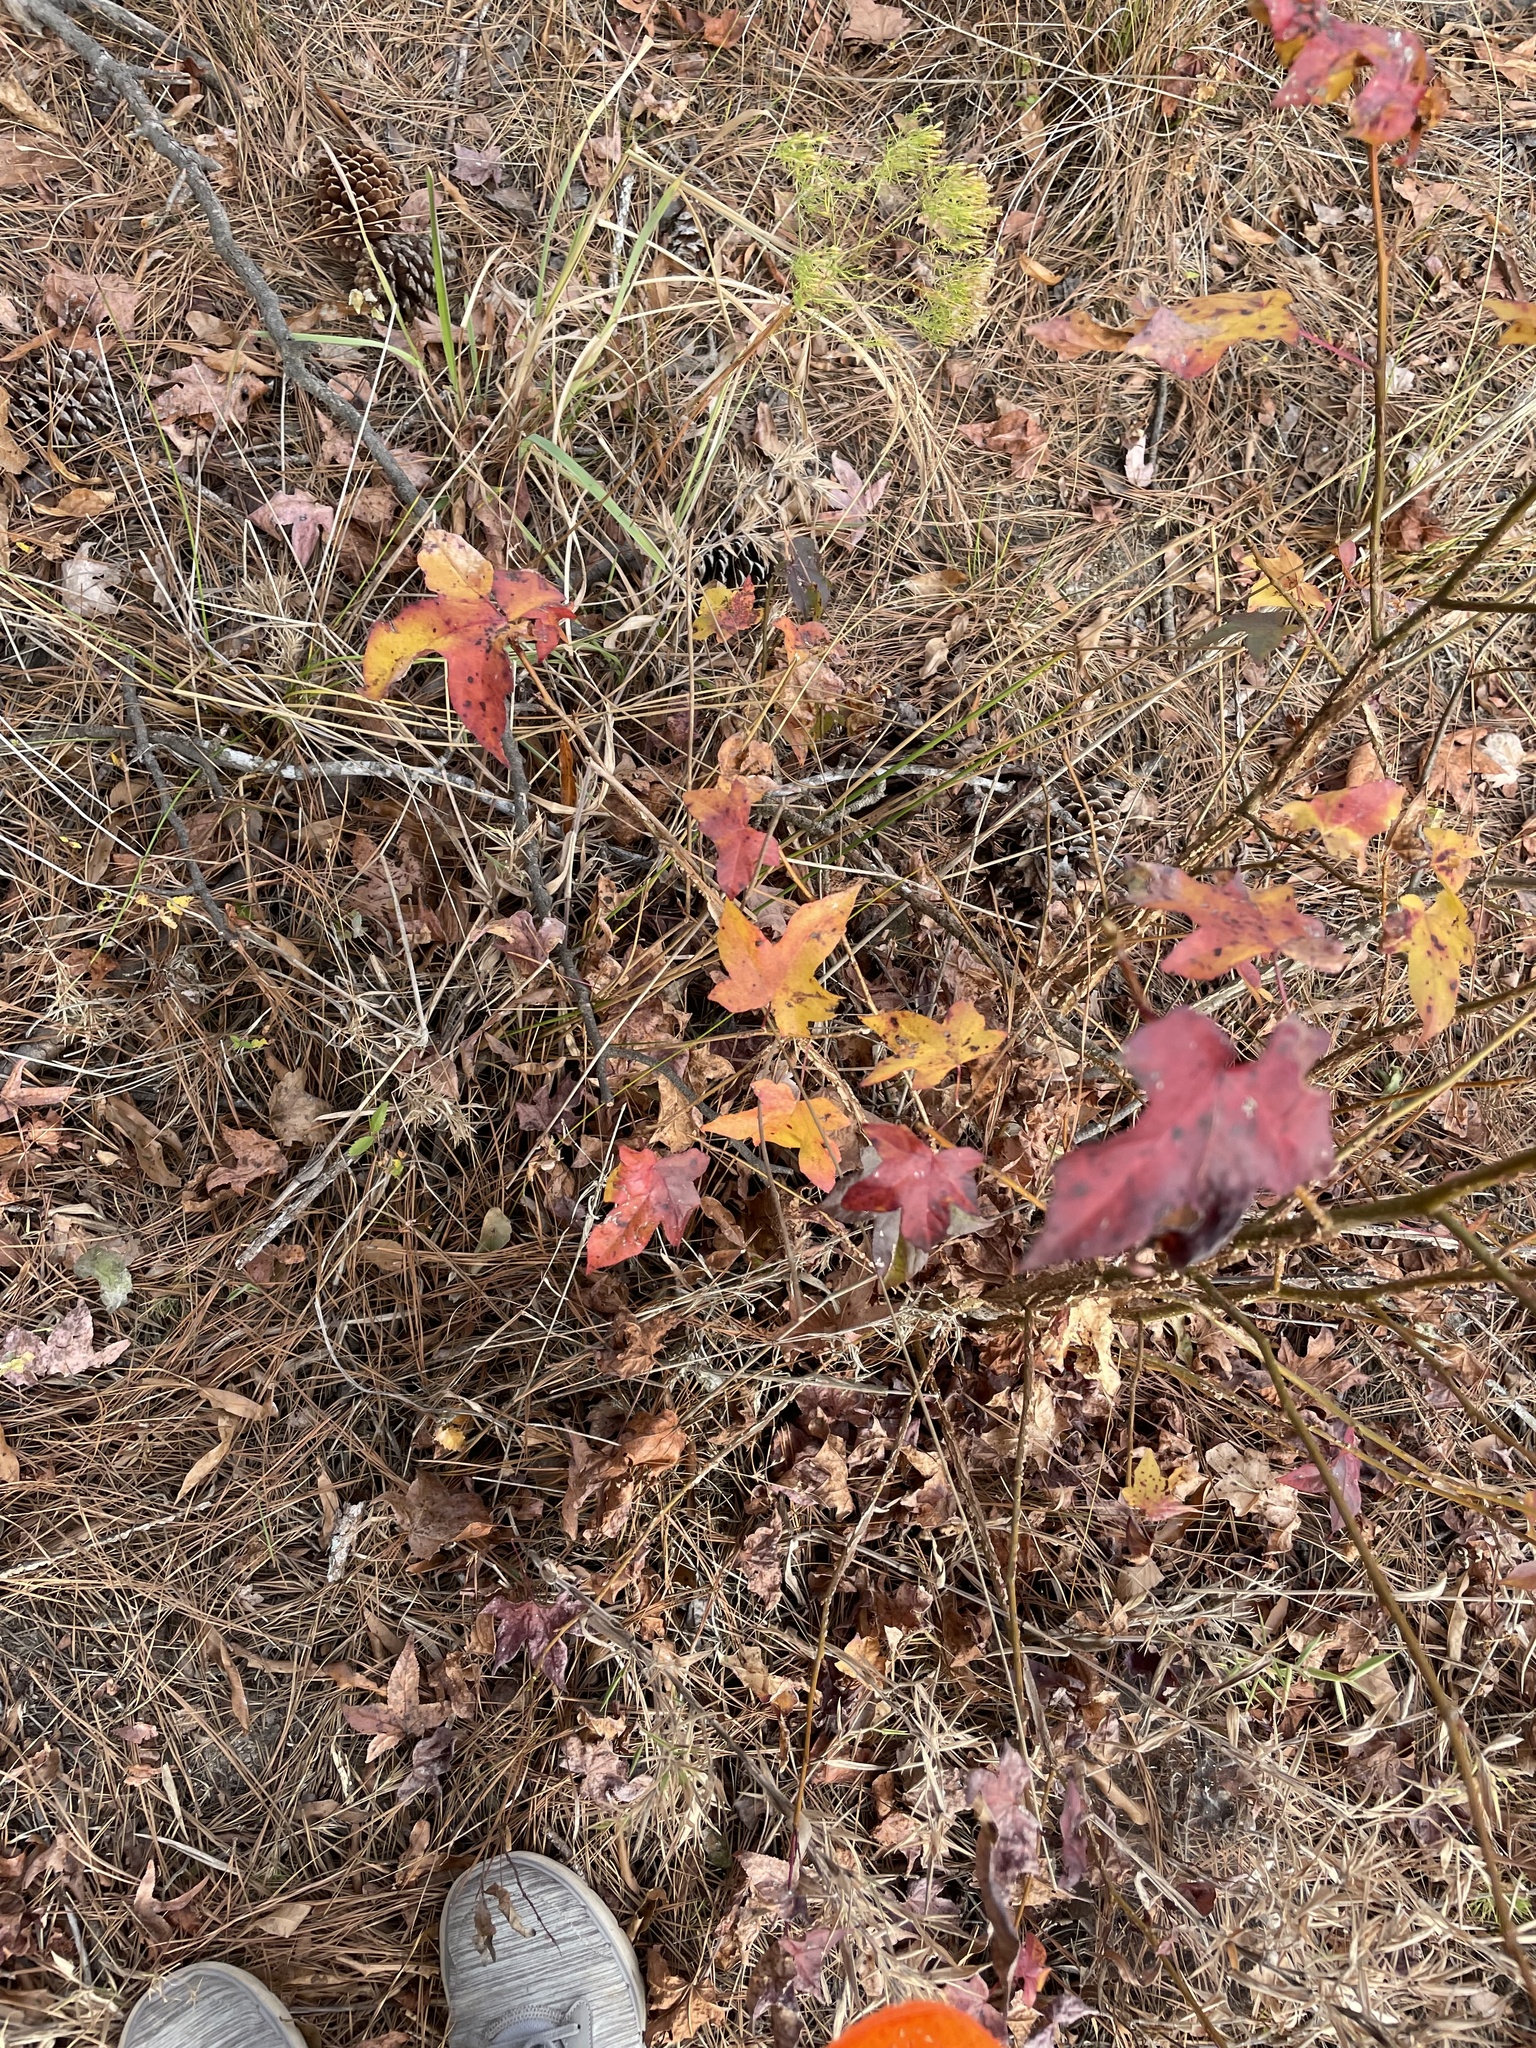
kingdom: Plantae
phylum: Tracheophyta
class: Magnoliopsida
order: Saxifragales
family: Altingiaceae
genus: Liquidambar
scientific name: Liquidambar styraciflua
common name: Sweet gum
